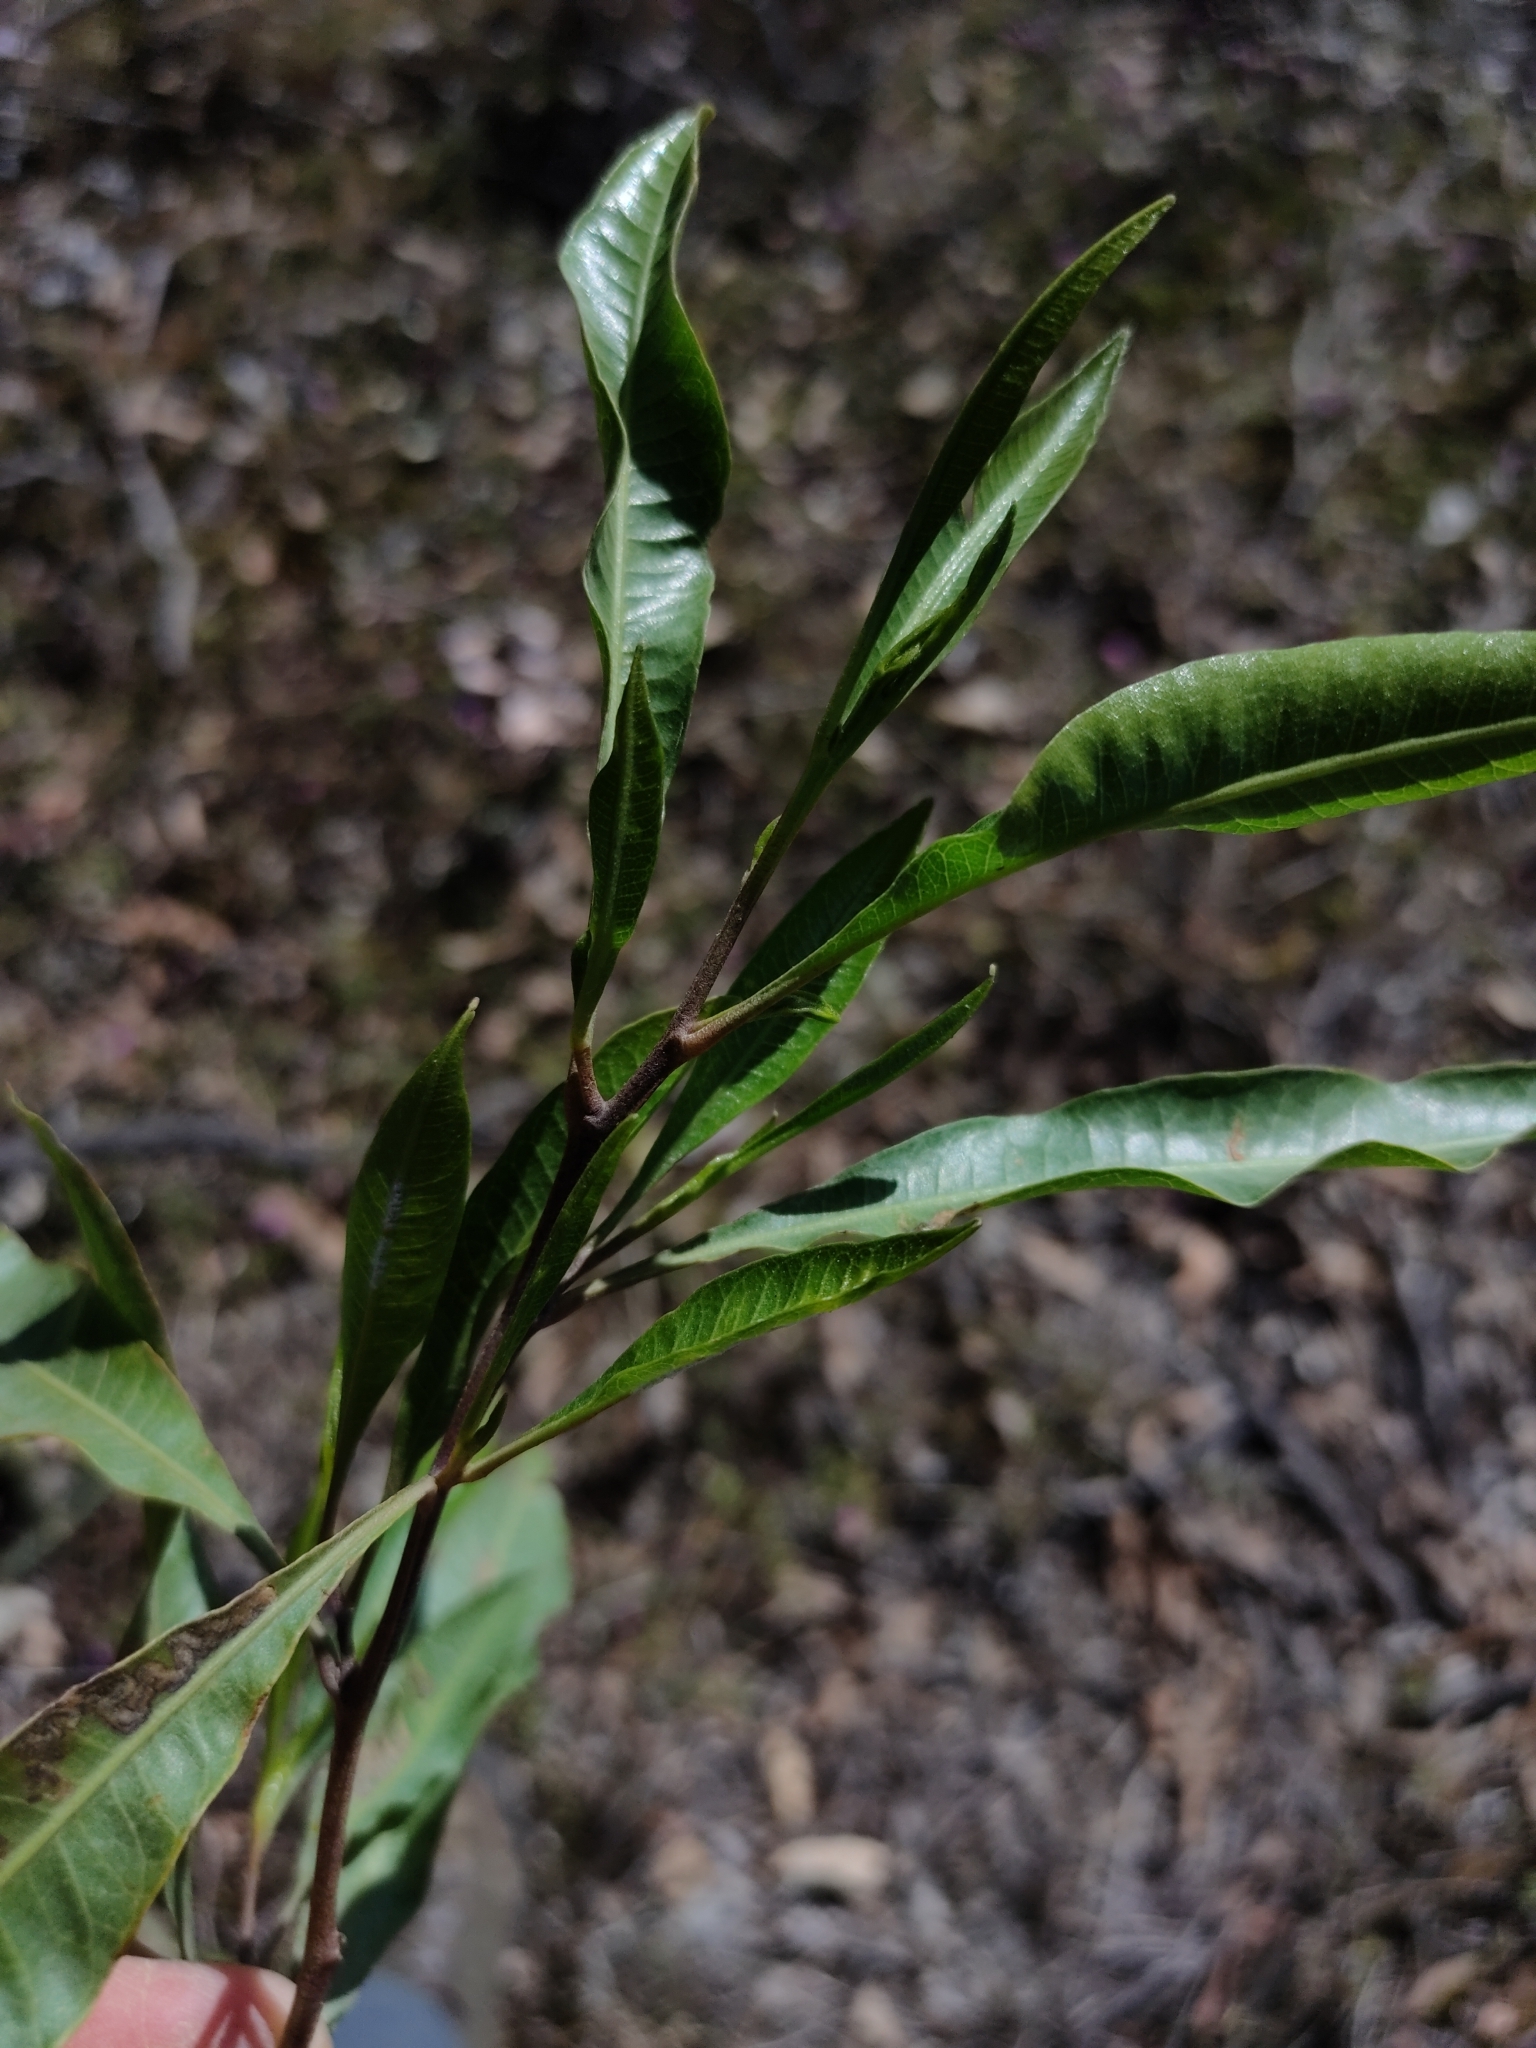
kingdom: Plantae
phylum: Tracheophyta
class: Magnoliopsida
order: Sapindales
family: Sapindaceae
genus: Dodonaea
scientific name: Dodonaea viscosa
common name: Hopbush
